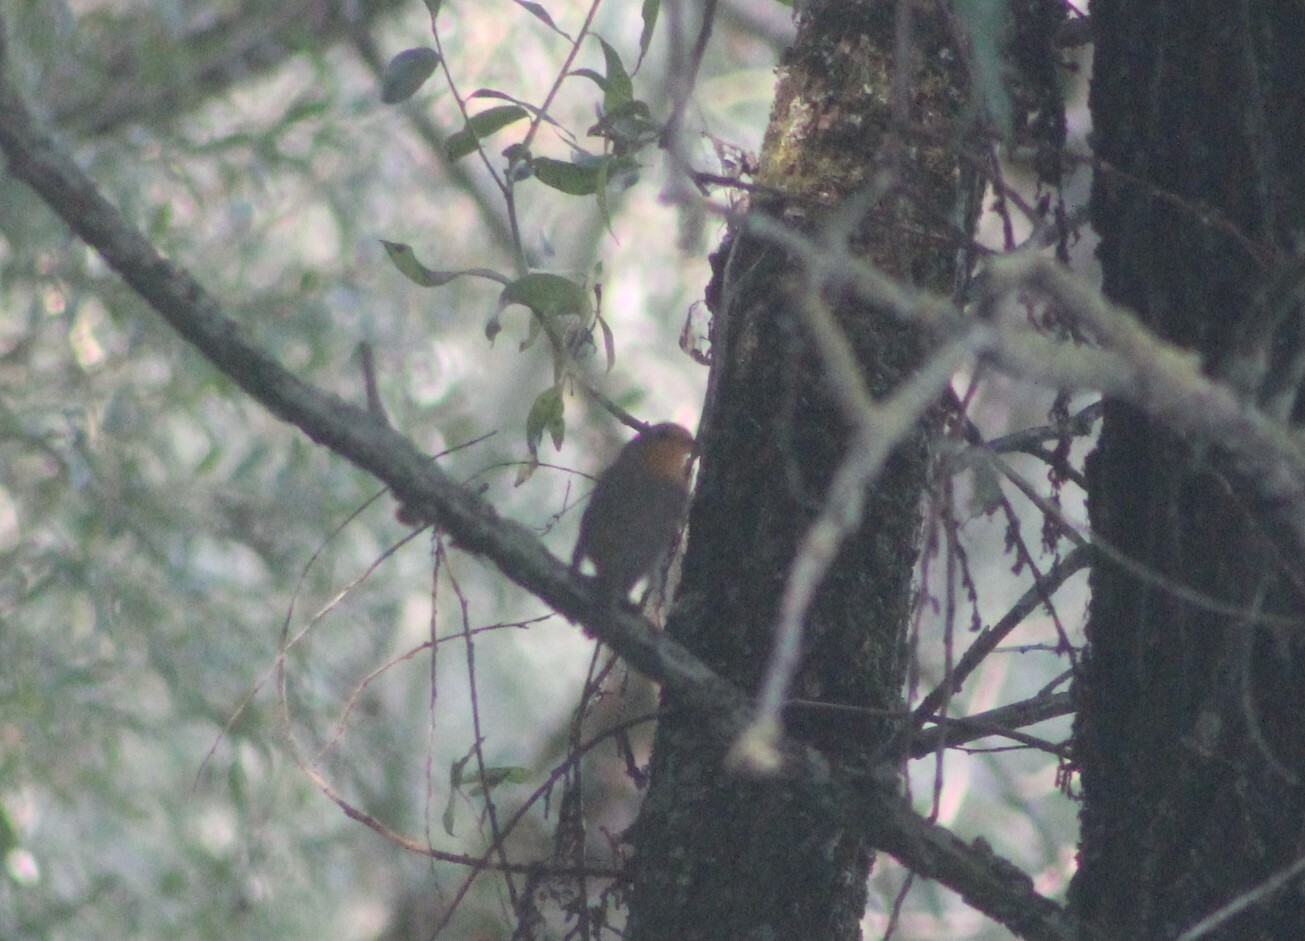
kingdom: Animalia
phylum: Chordata
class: Aves
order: Passeriformes
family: Muscicapidae
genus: Erithacus
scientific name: Erithacus rubecula
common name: European robin
